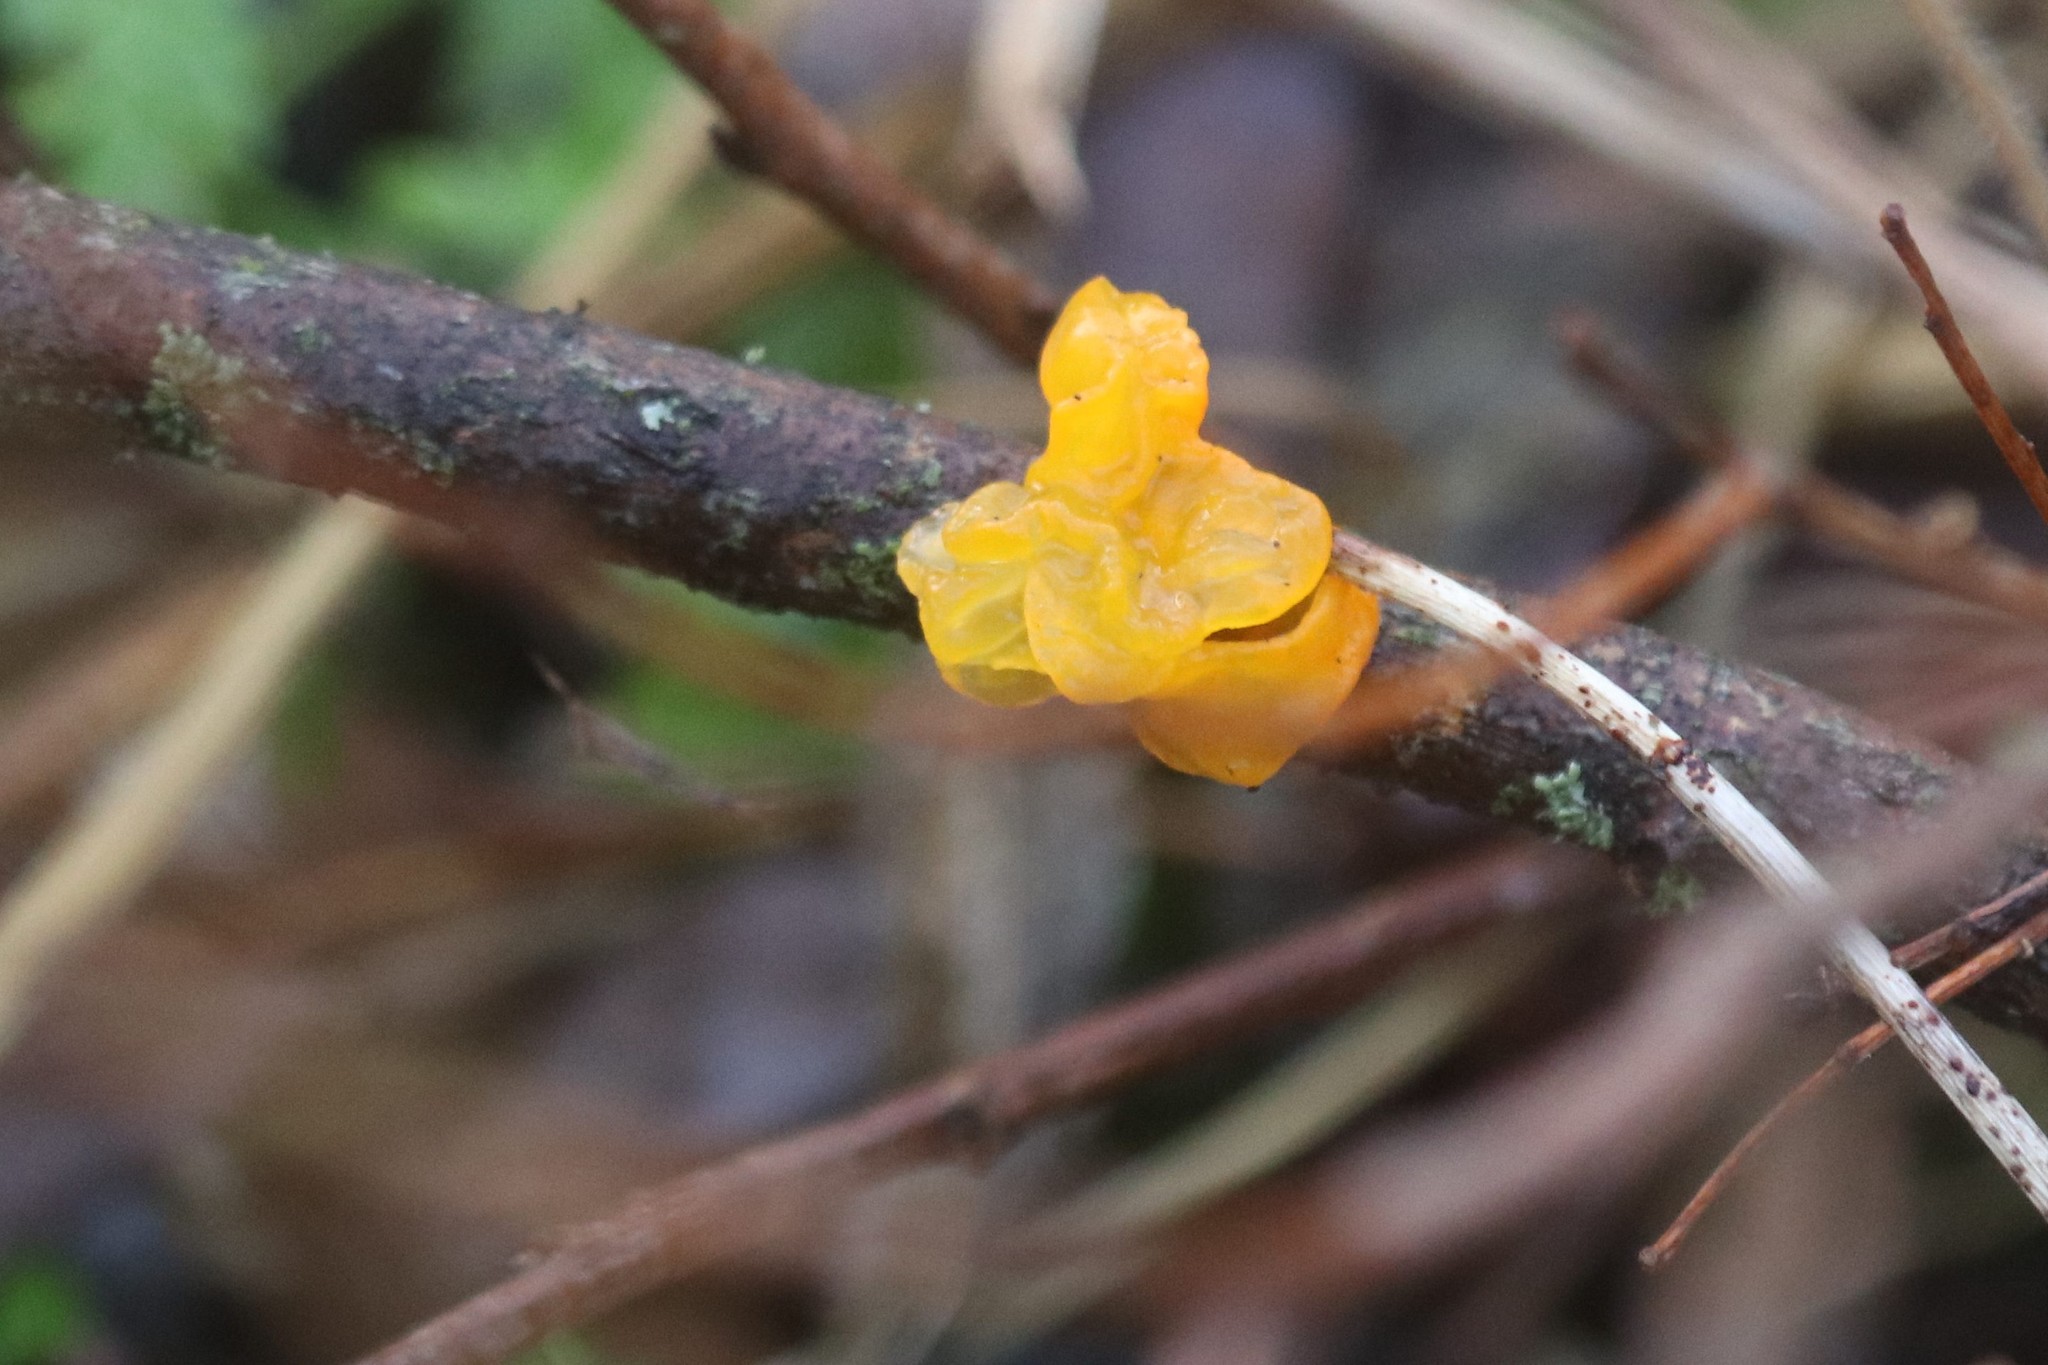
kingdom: Fungi
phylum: Basidiomycota
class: Tremellomycetes
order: Tremellales
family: Tremellaceae
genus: Tremella
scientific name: Tremella mesenterica
